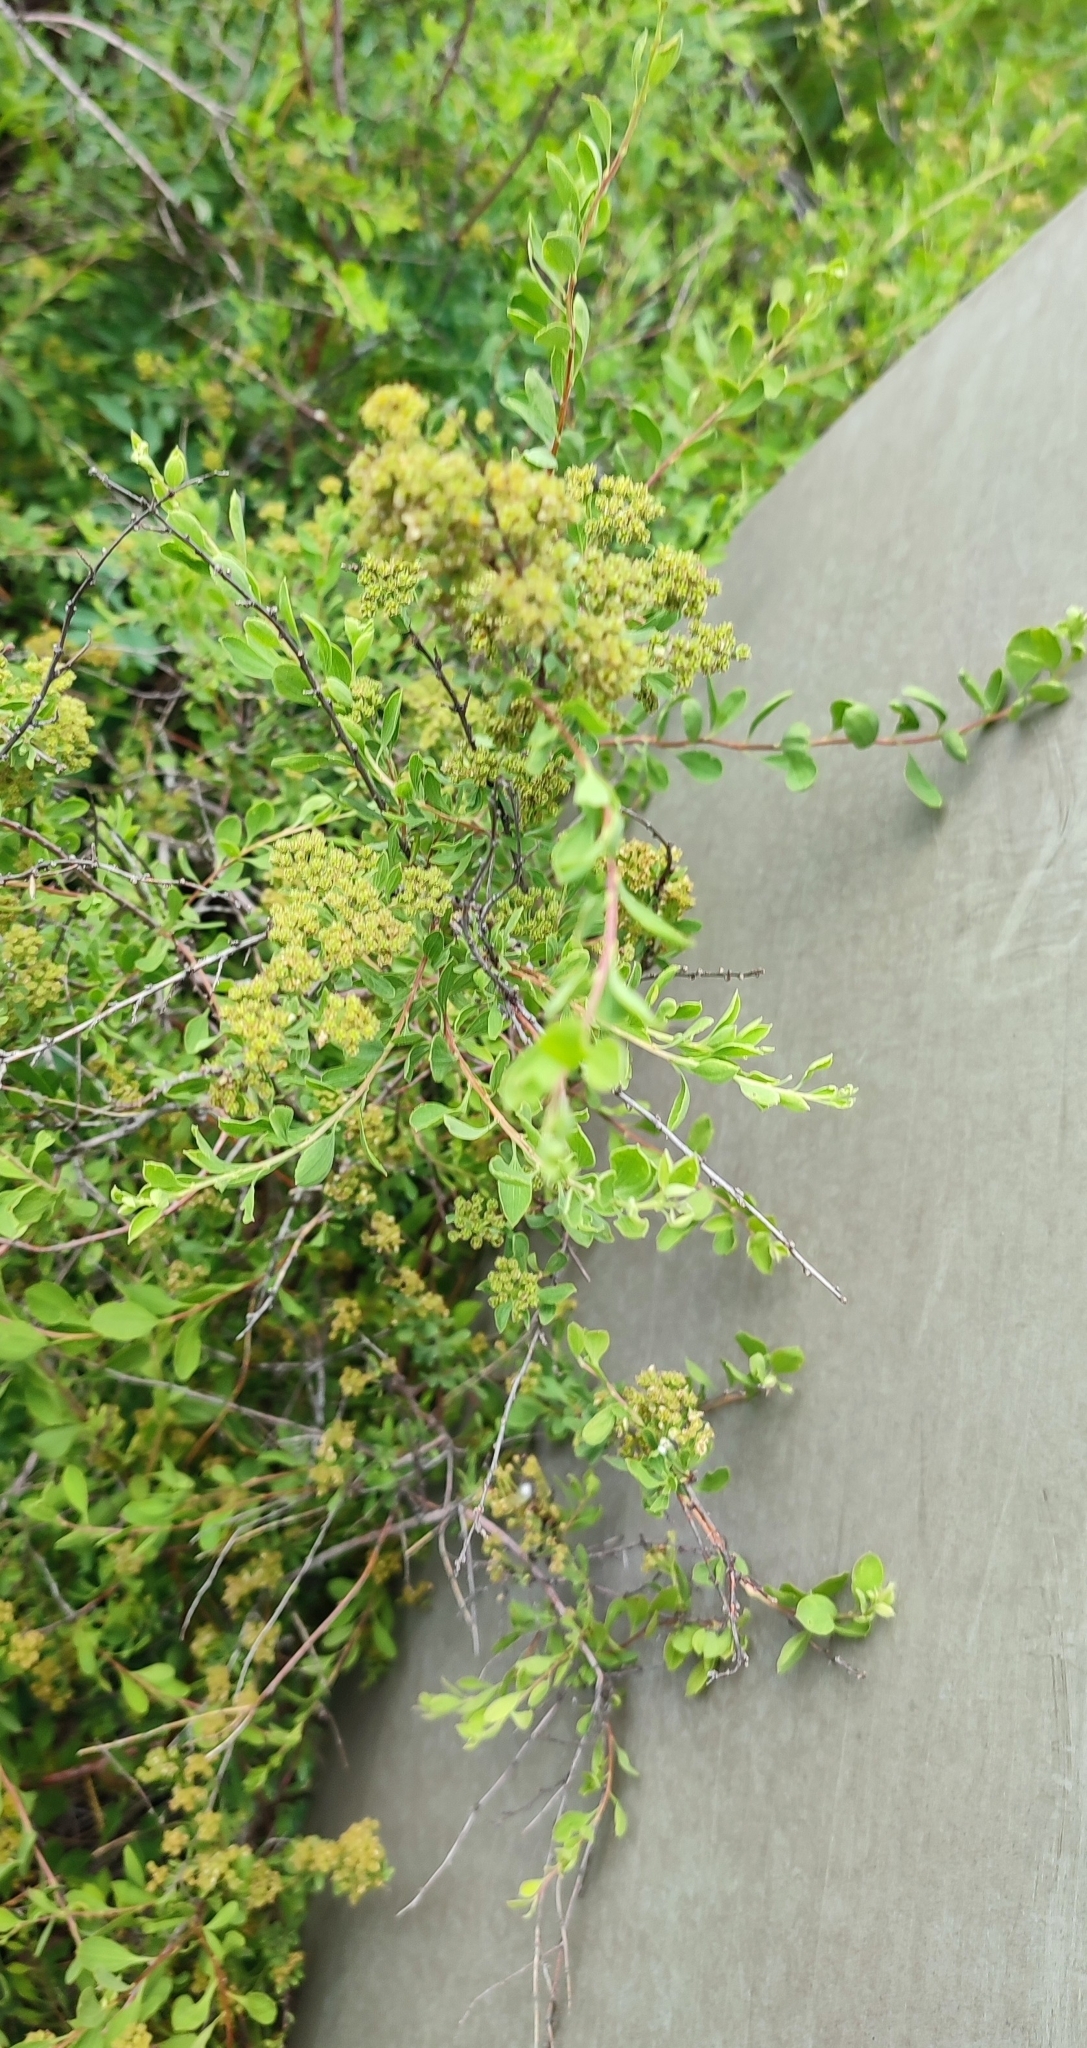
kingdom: Plantae
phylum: Tracheophyta
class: Magnoliopsida
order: Rosales
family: Rosaceae
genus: Spiraea
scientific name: Spiraea crenata
